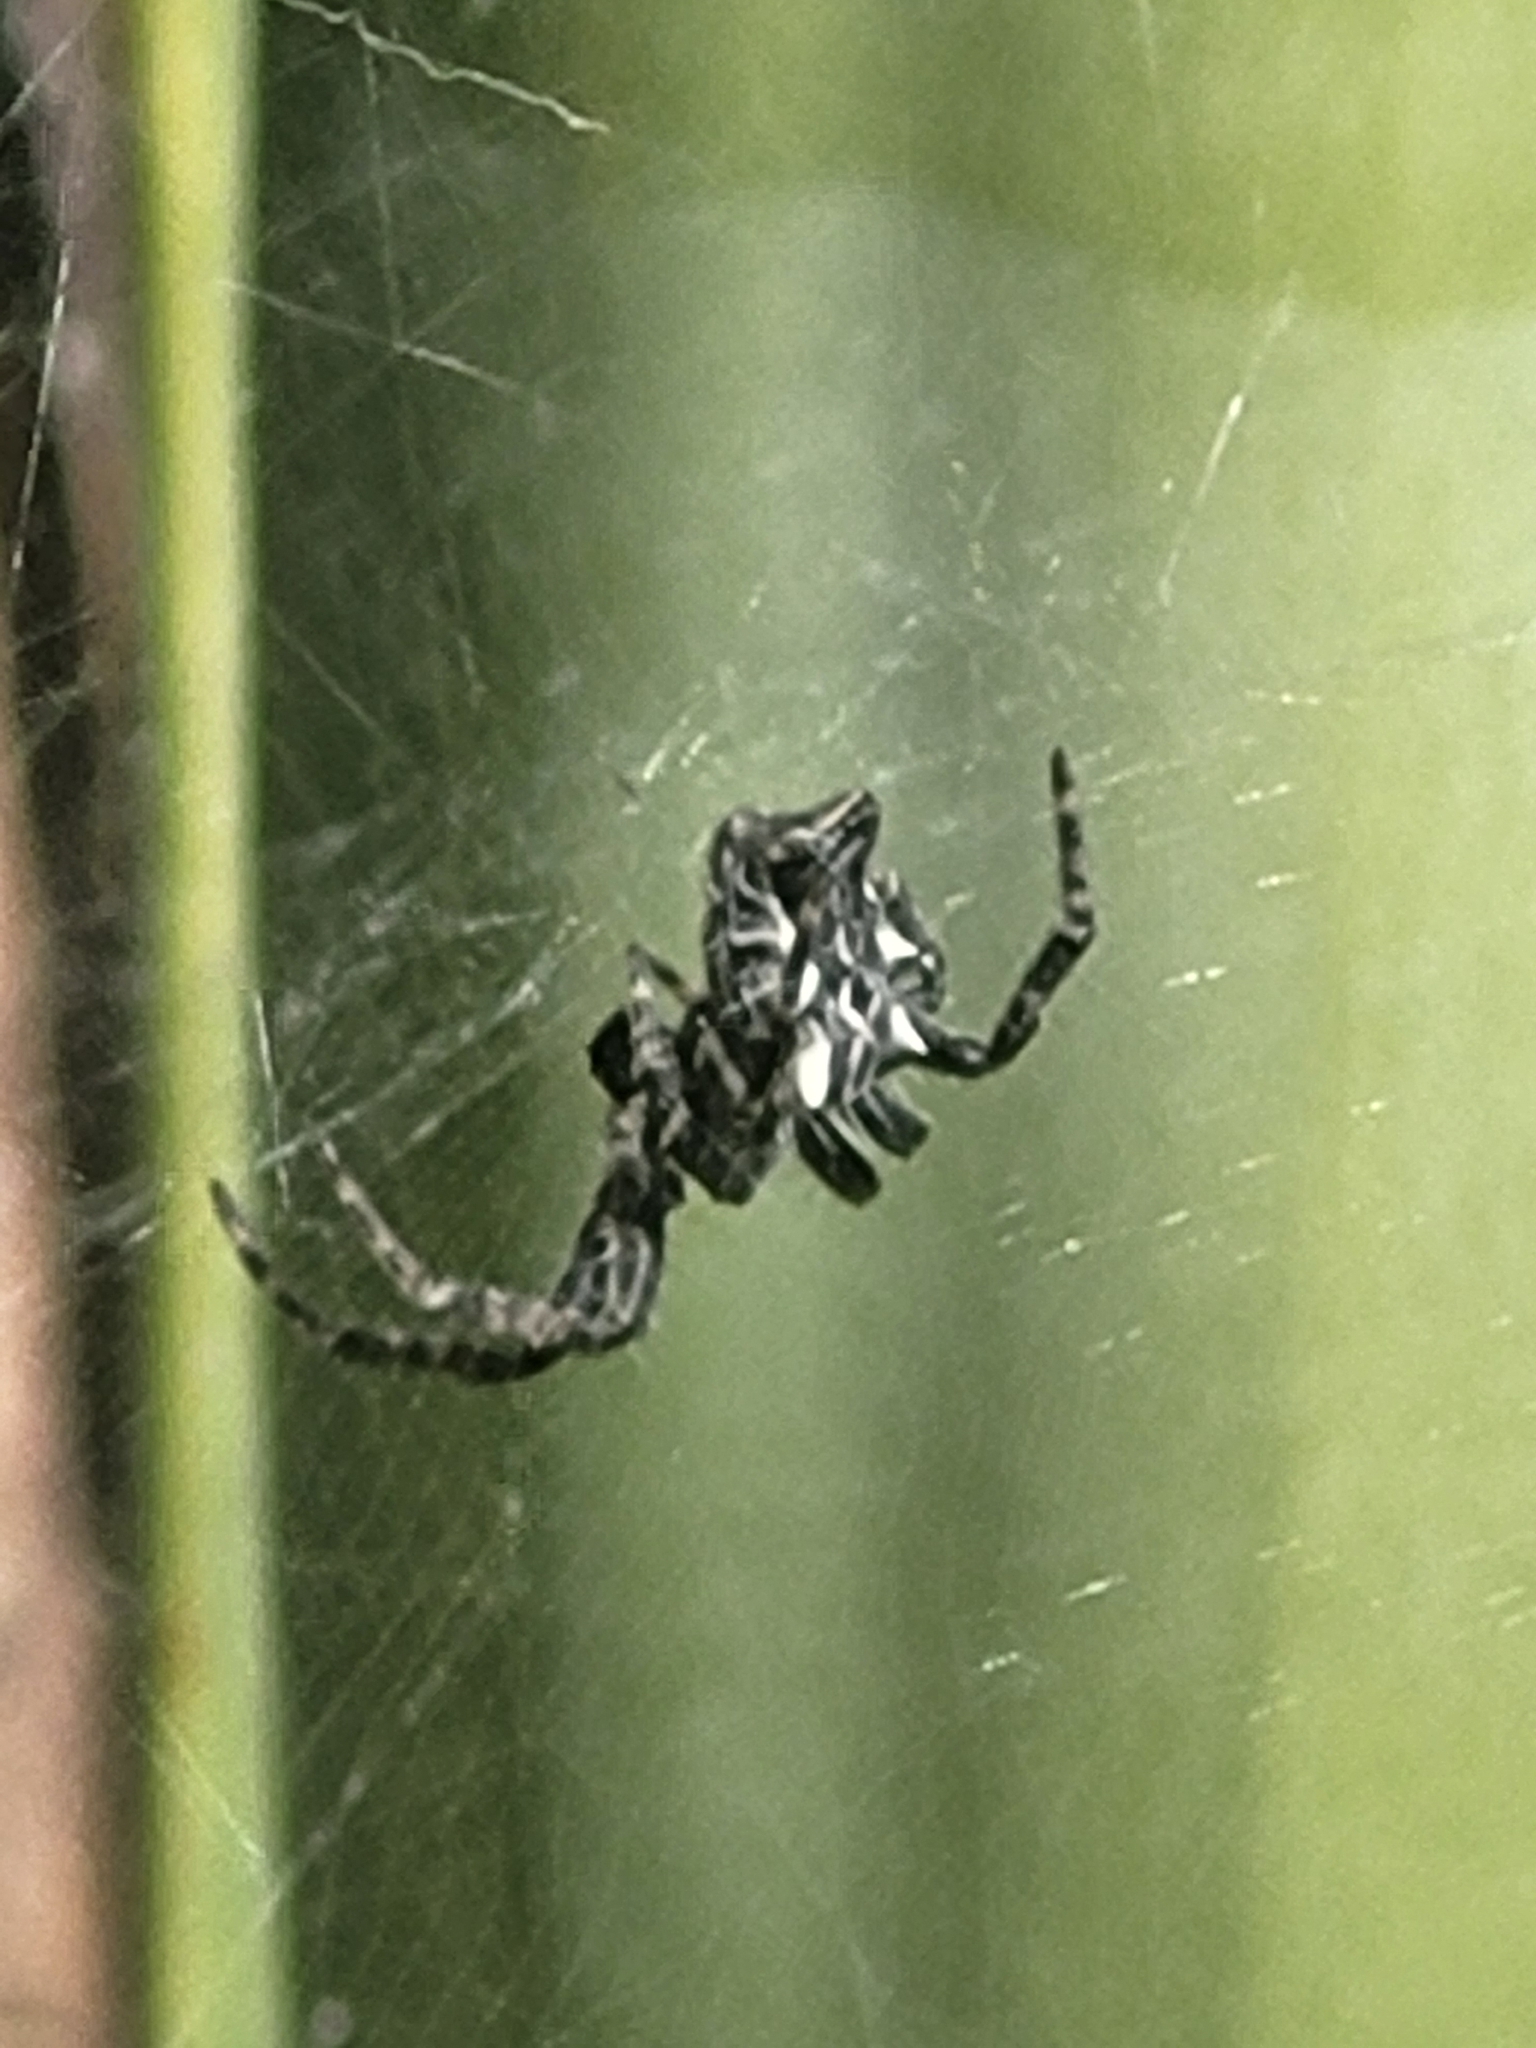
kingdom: Animalia
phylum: Arthropoda
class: Arachnida
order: Araneae
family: Araneidae
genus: Cyrtophora
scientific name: Cyrtophora citricola
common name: Orb weavers
